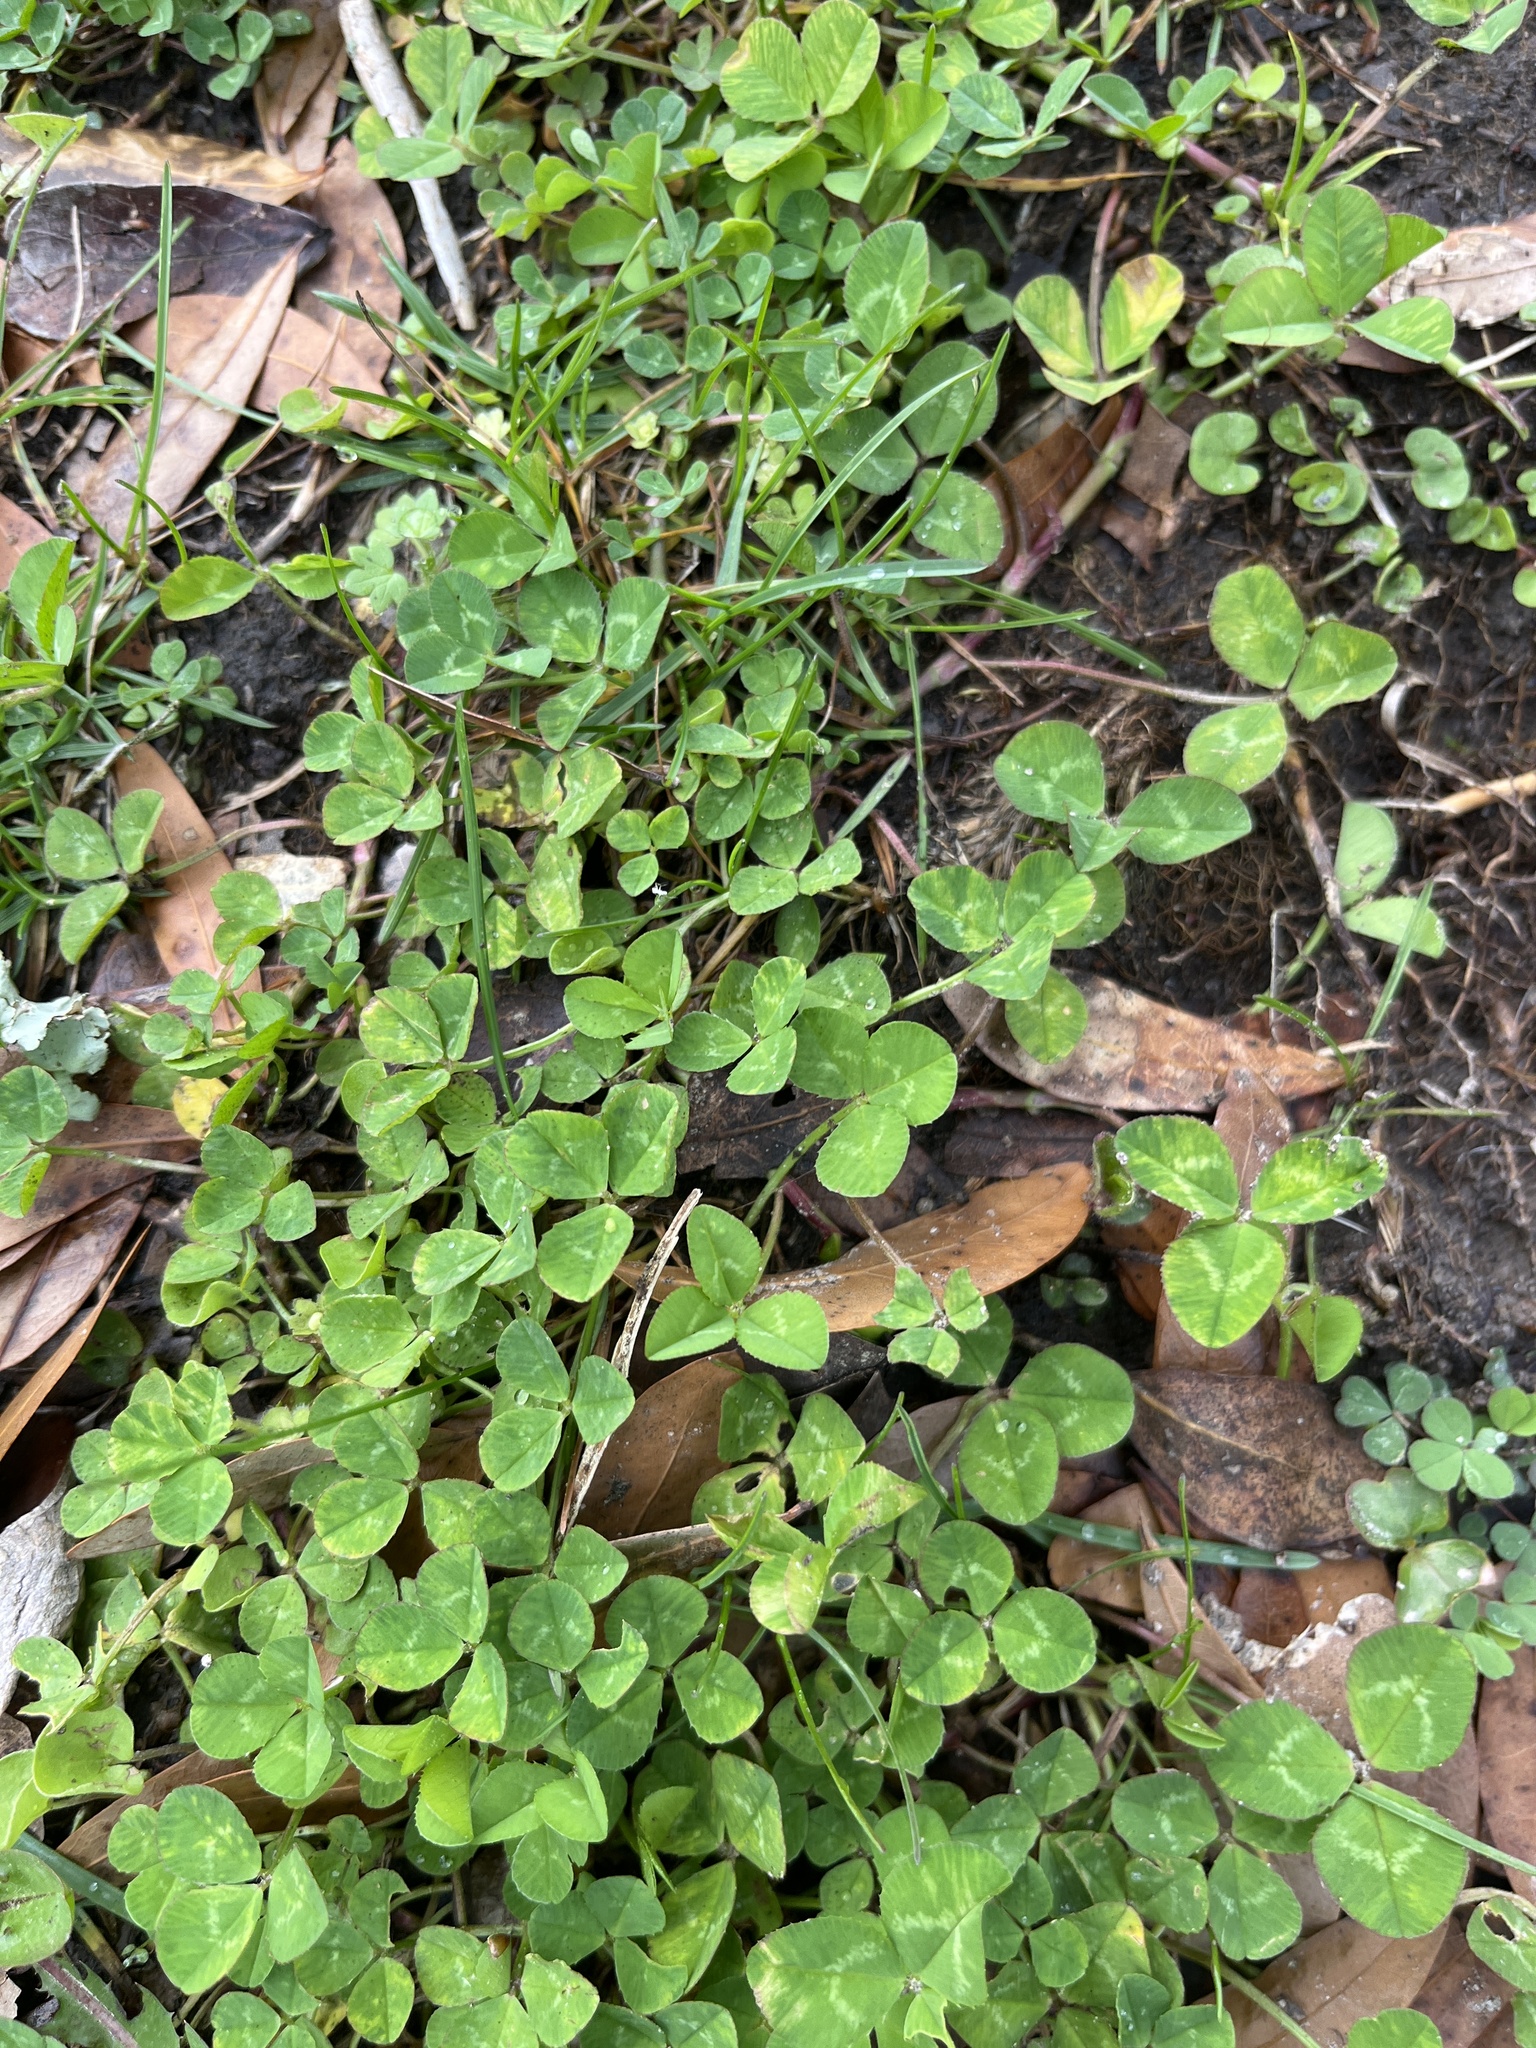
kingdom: Plantae
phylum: Tracheophyta
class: Magnoliopsida
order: Fabales
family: Fabaceae
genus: Trifolium
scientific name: Trifolium repens
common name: White clover
